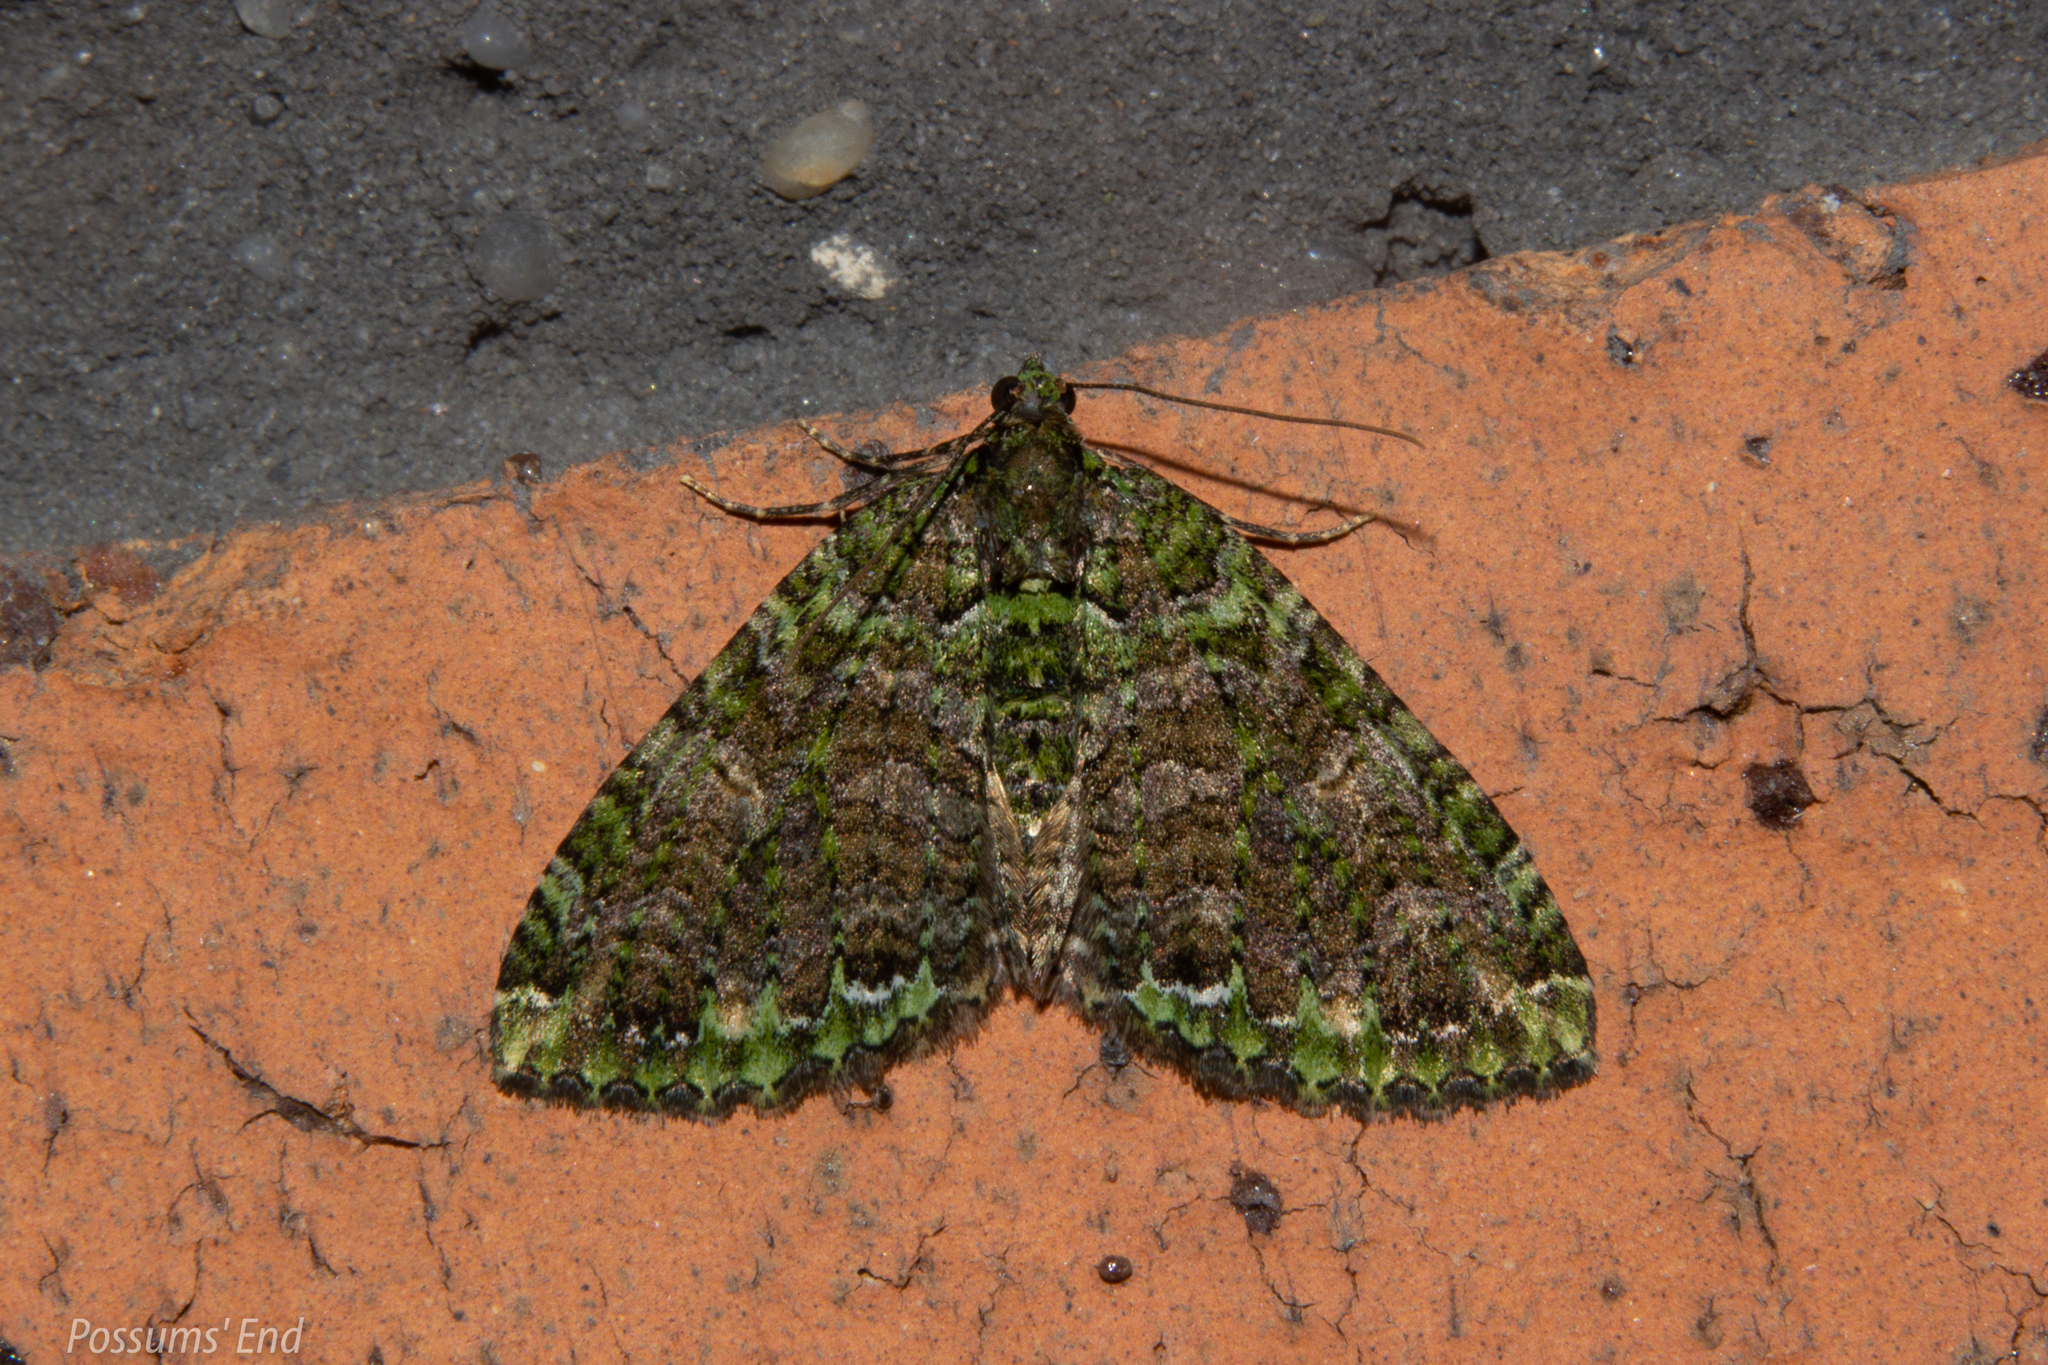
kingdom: Animalia
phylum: Arthropoda
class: Insecta
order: Lepidoptera
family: Geometridae
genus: Austrocidaria
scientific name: Austrocidaria similata
